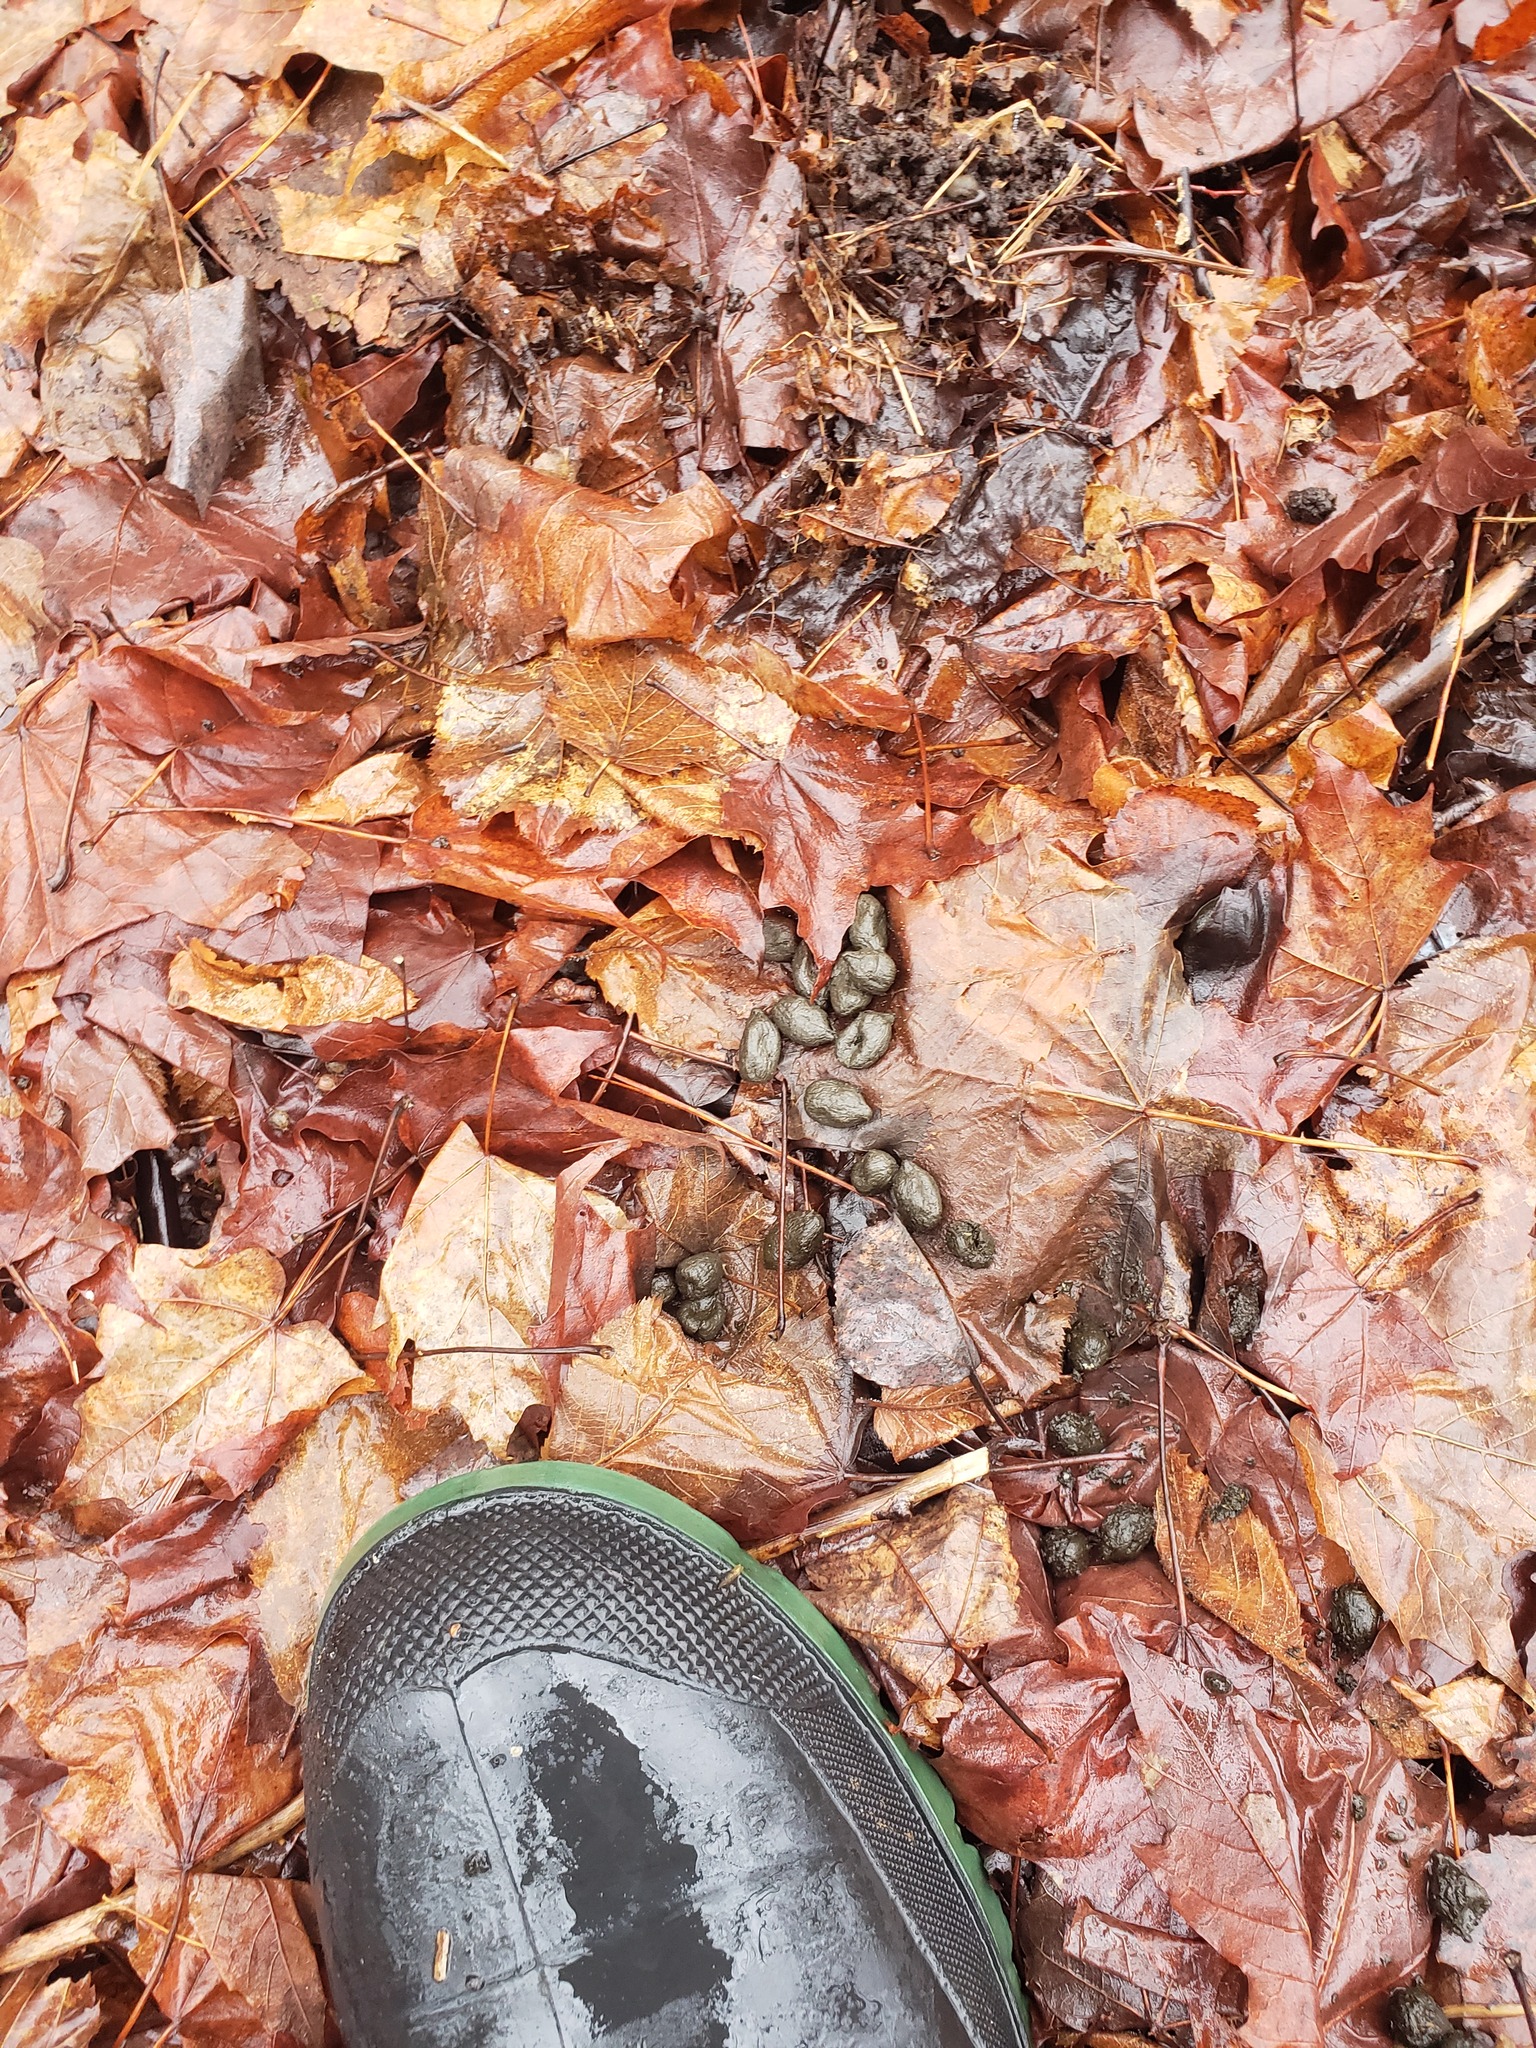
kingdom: Animalia
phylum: Chordata
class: Mammalia
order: Artiodactyla
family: Cervidae
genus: Odocoileus
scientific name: Odocoileus virginianus
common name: White-tailed deer
